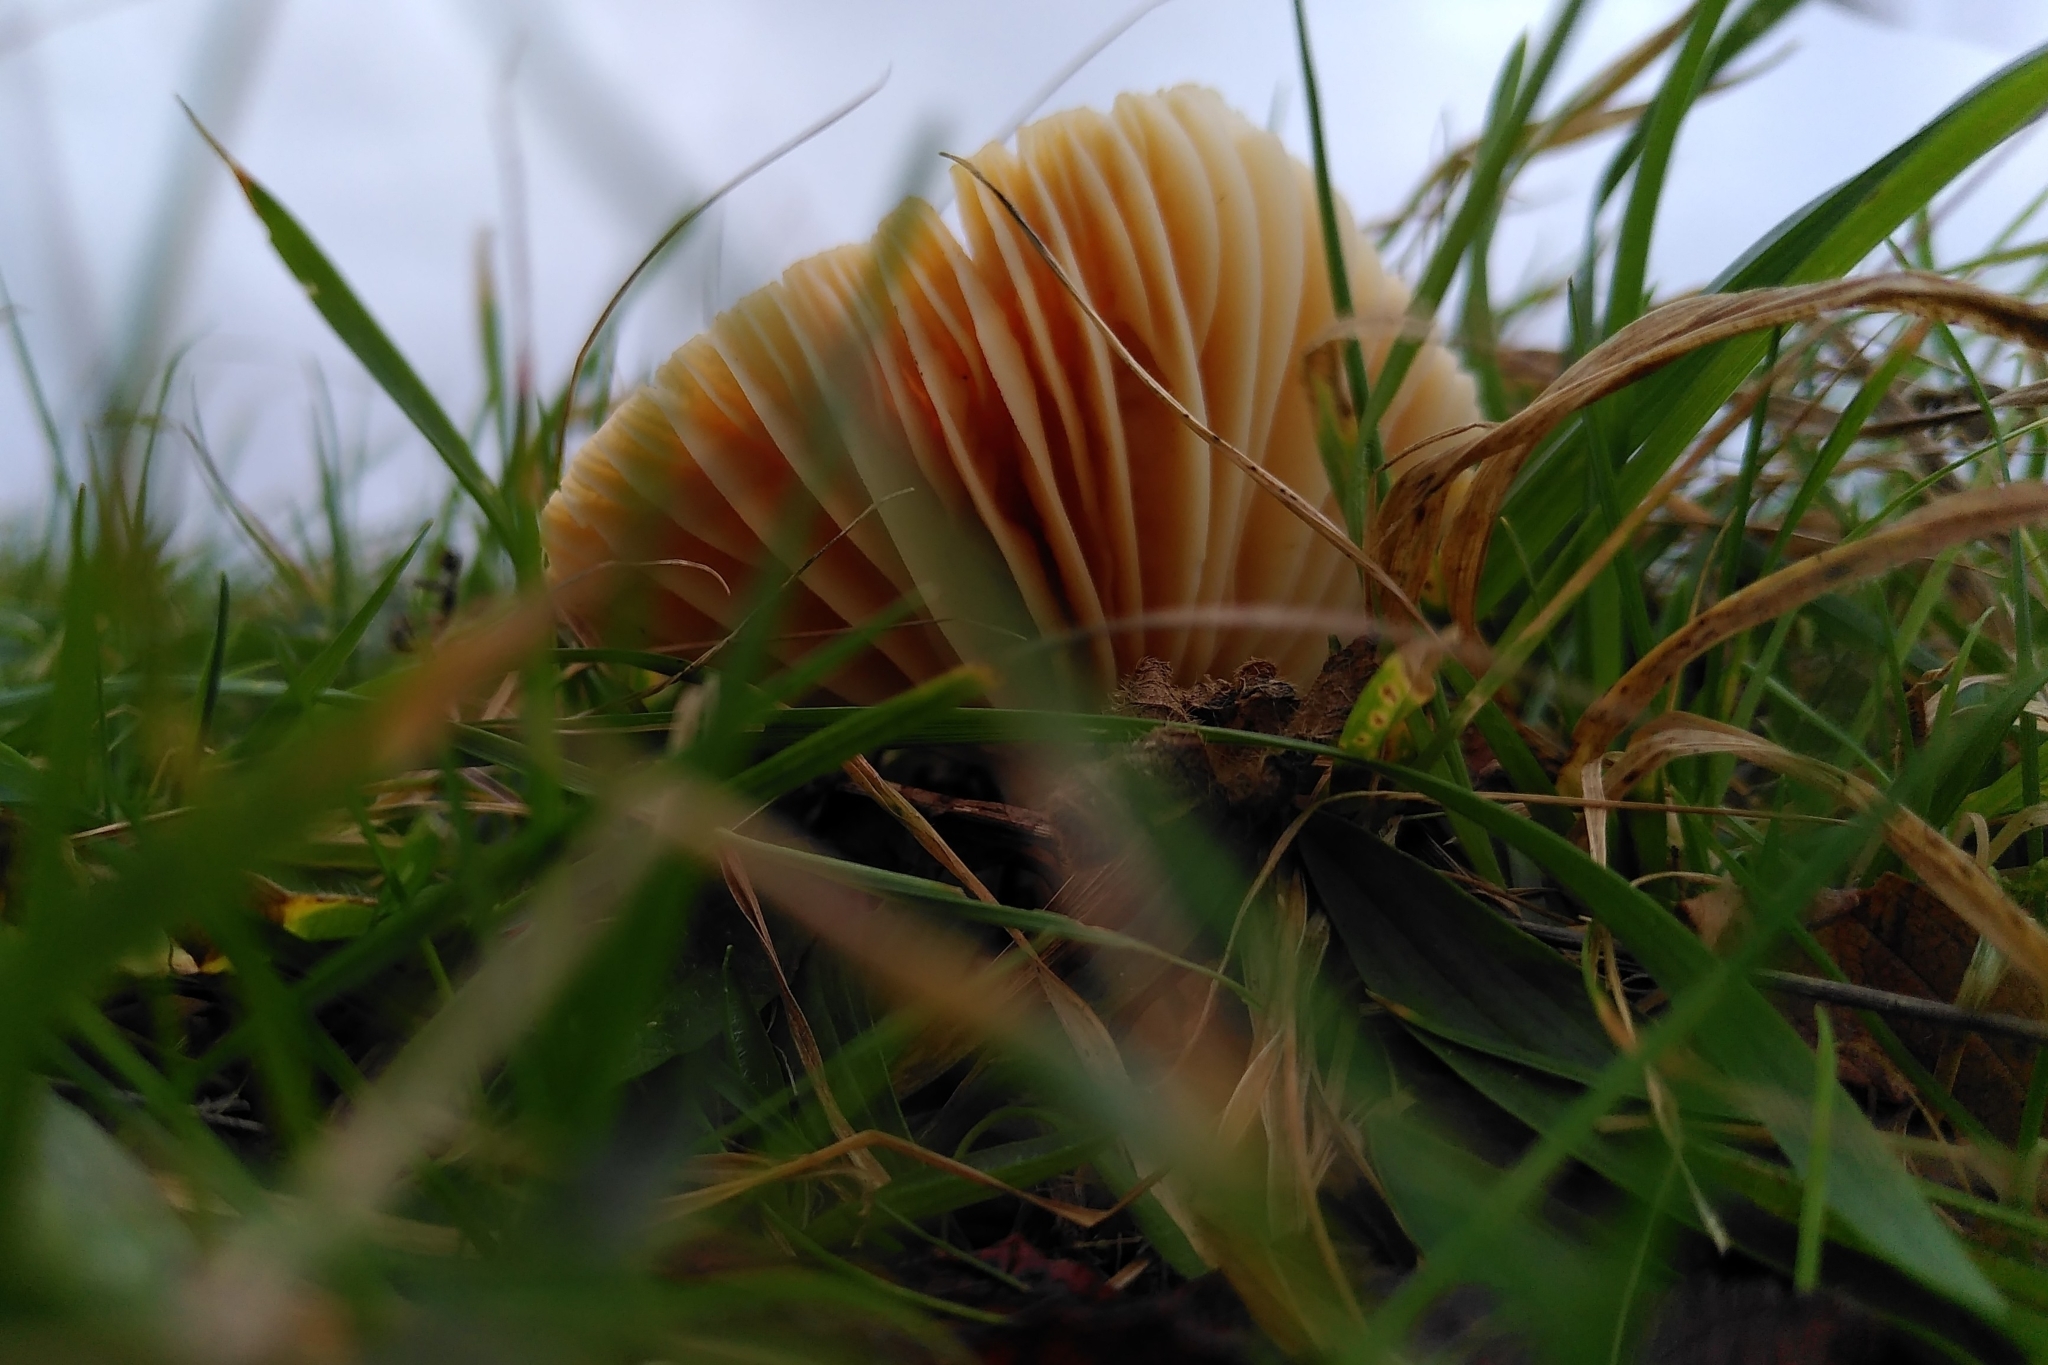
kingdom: Fungi
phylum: Basidiomycota
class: Agaricomycetes
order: Agaricales
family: Hygrophoraceae
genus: Cuphophyllus
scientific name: Cuphophyllus pratensis
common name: Meadow waxcap
